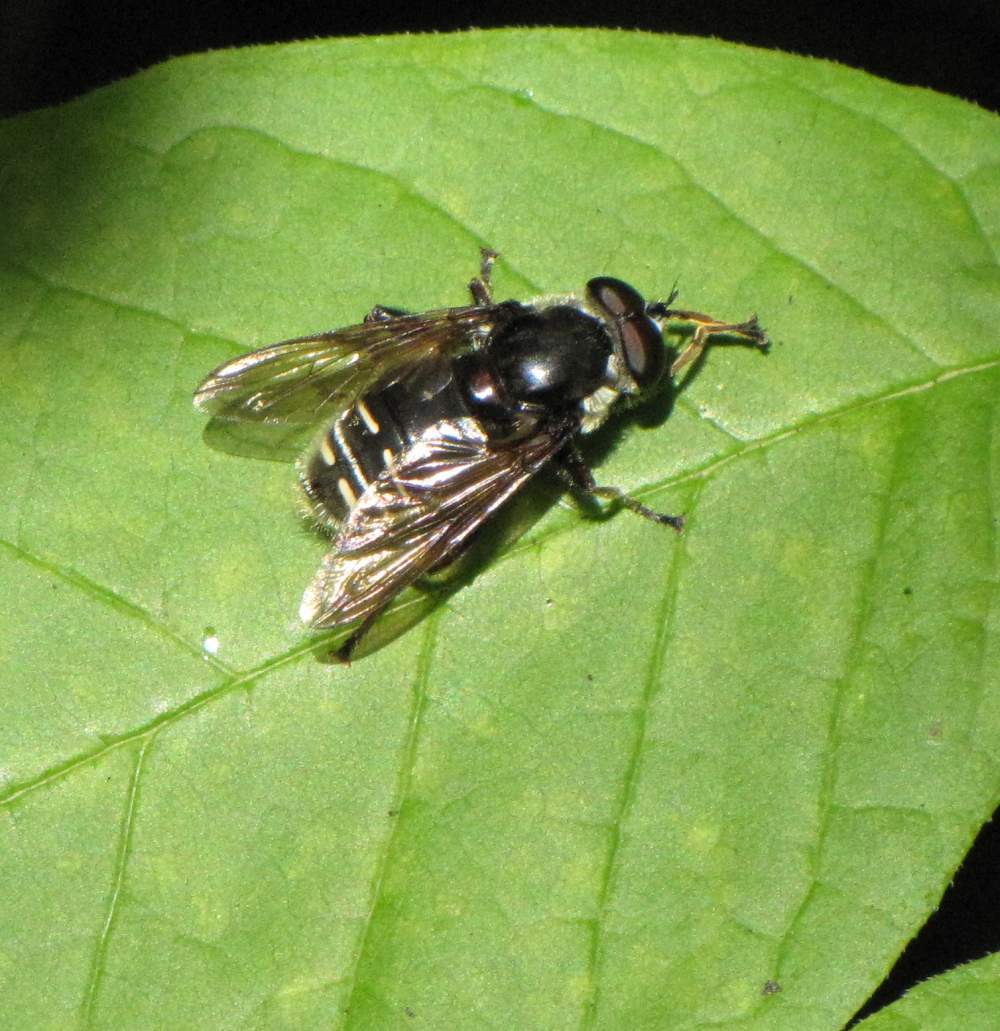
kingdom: Animalia
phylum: Arthropoda
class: Insecta
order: Diptera
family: Syrphidae
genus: Sericomyia
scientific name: Sericomyia militaris
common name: Narrow-banded pond fly
